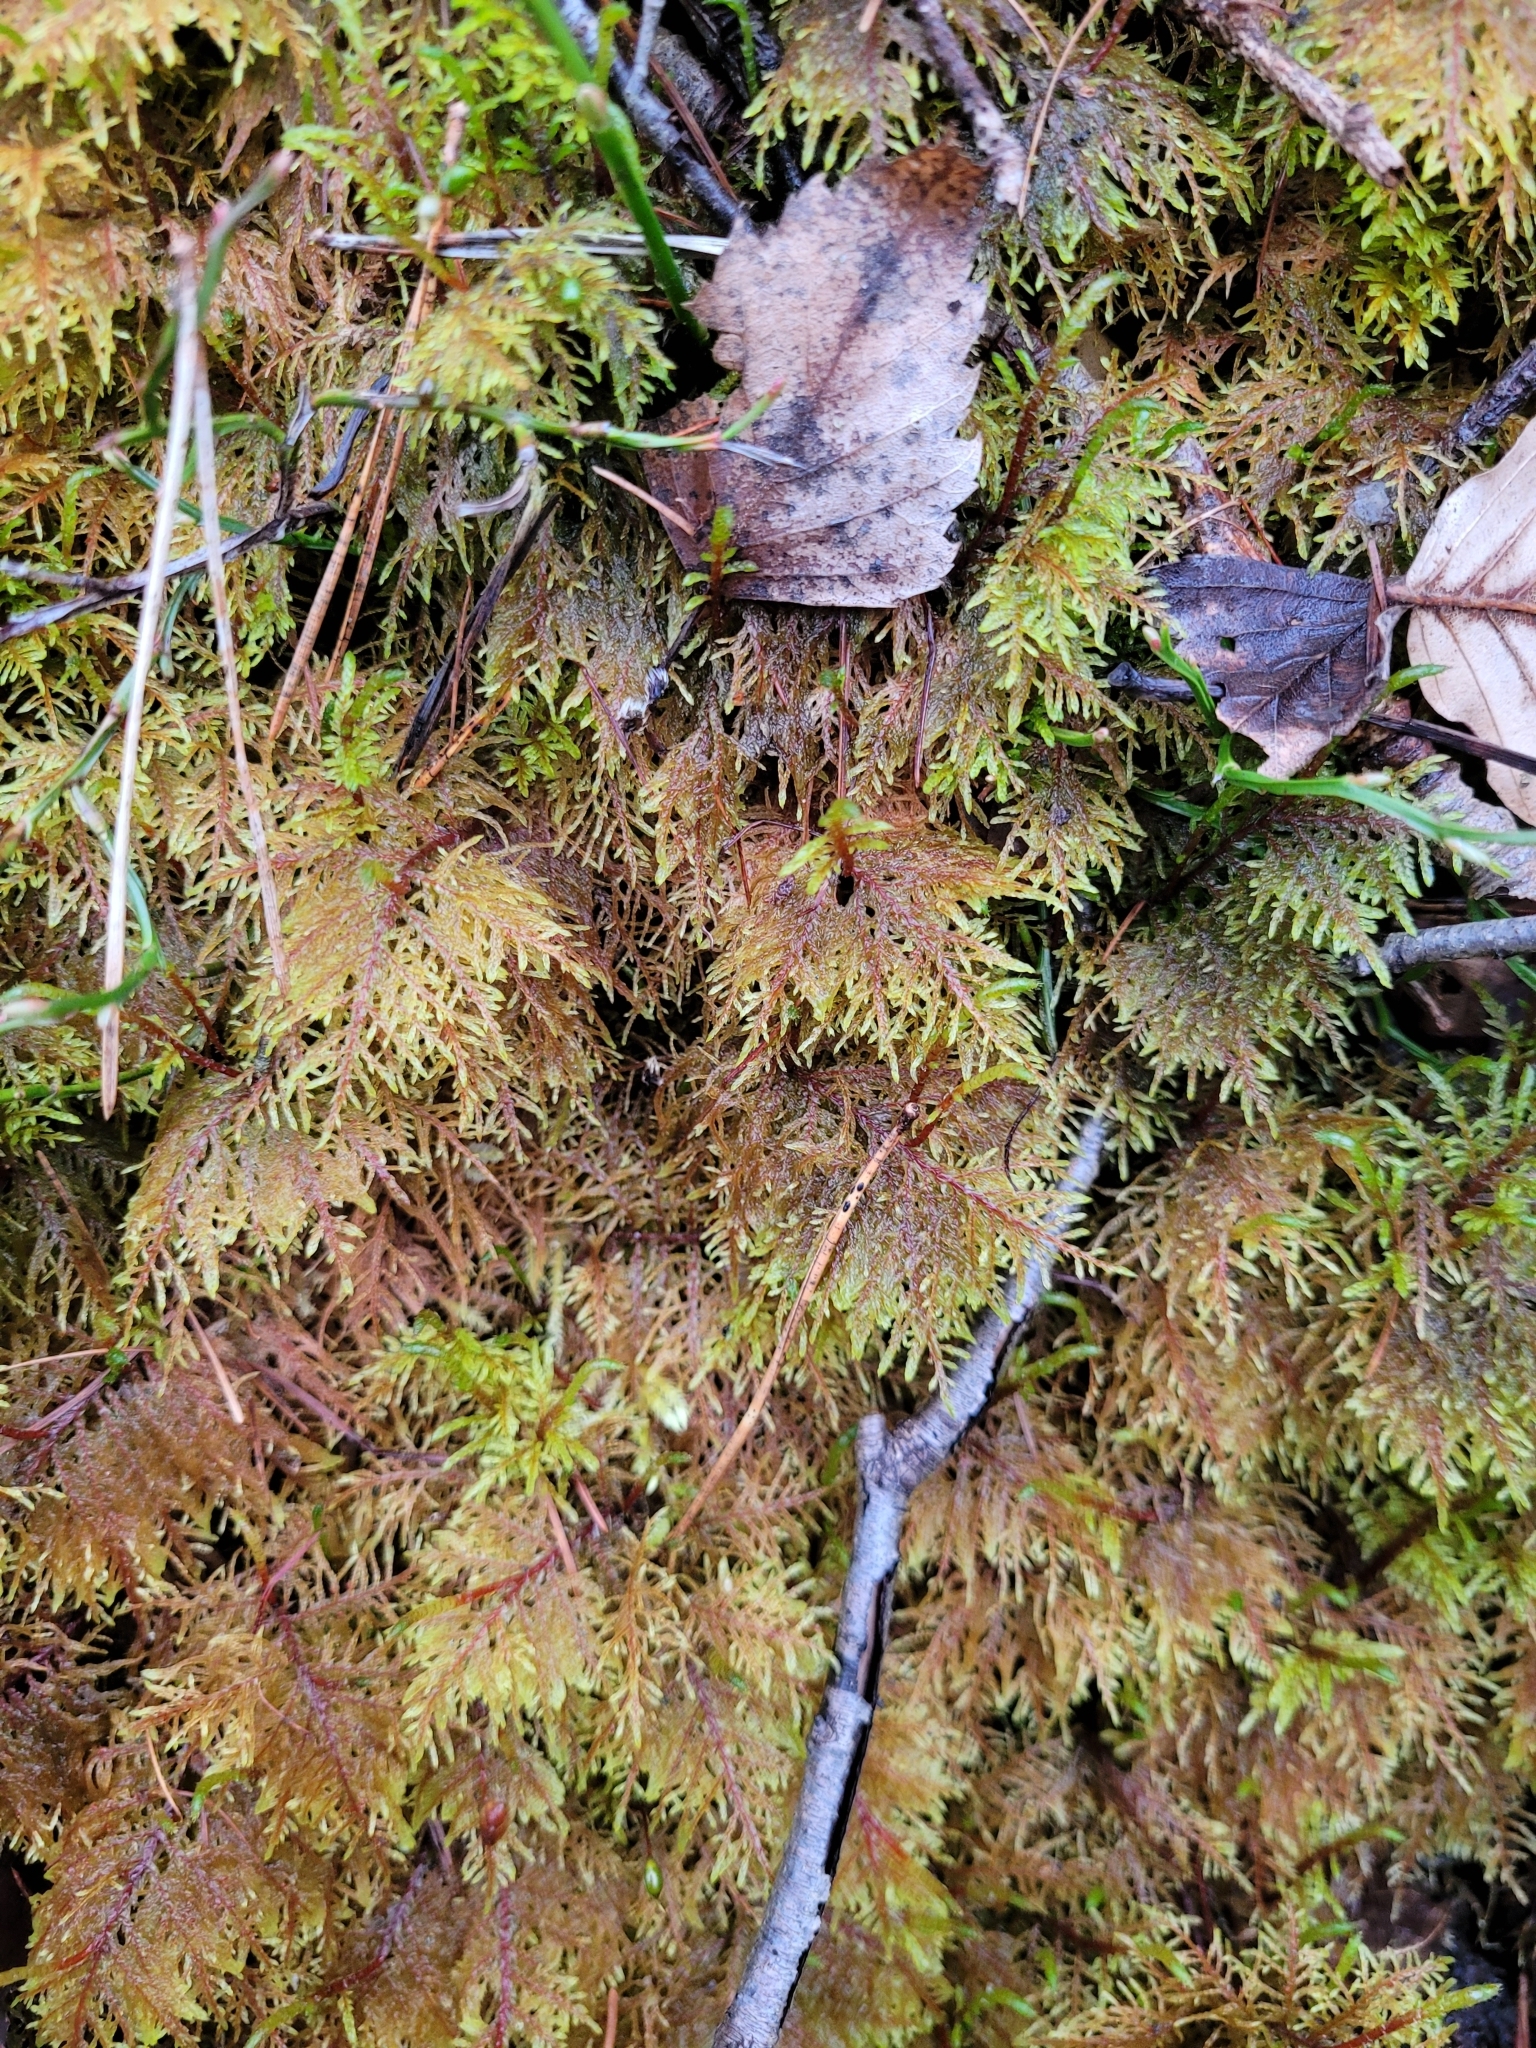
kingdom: Plantae
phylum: Bryophyta
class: Bryopsida
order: Hypnales
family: Hylocomiaceae
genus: Hylocomium
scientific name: Hylocomium splendens
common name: Stairstep moss
